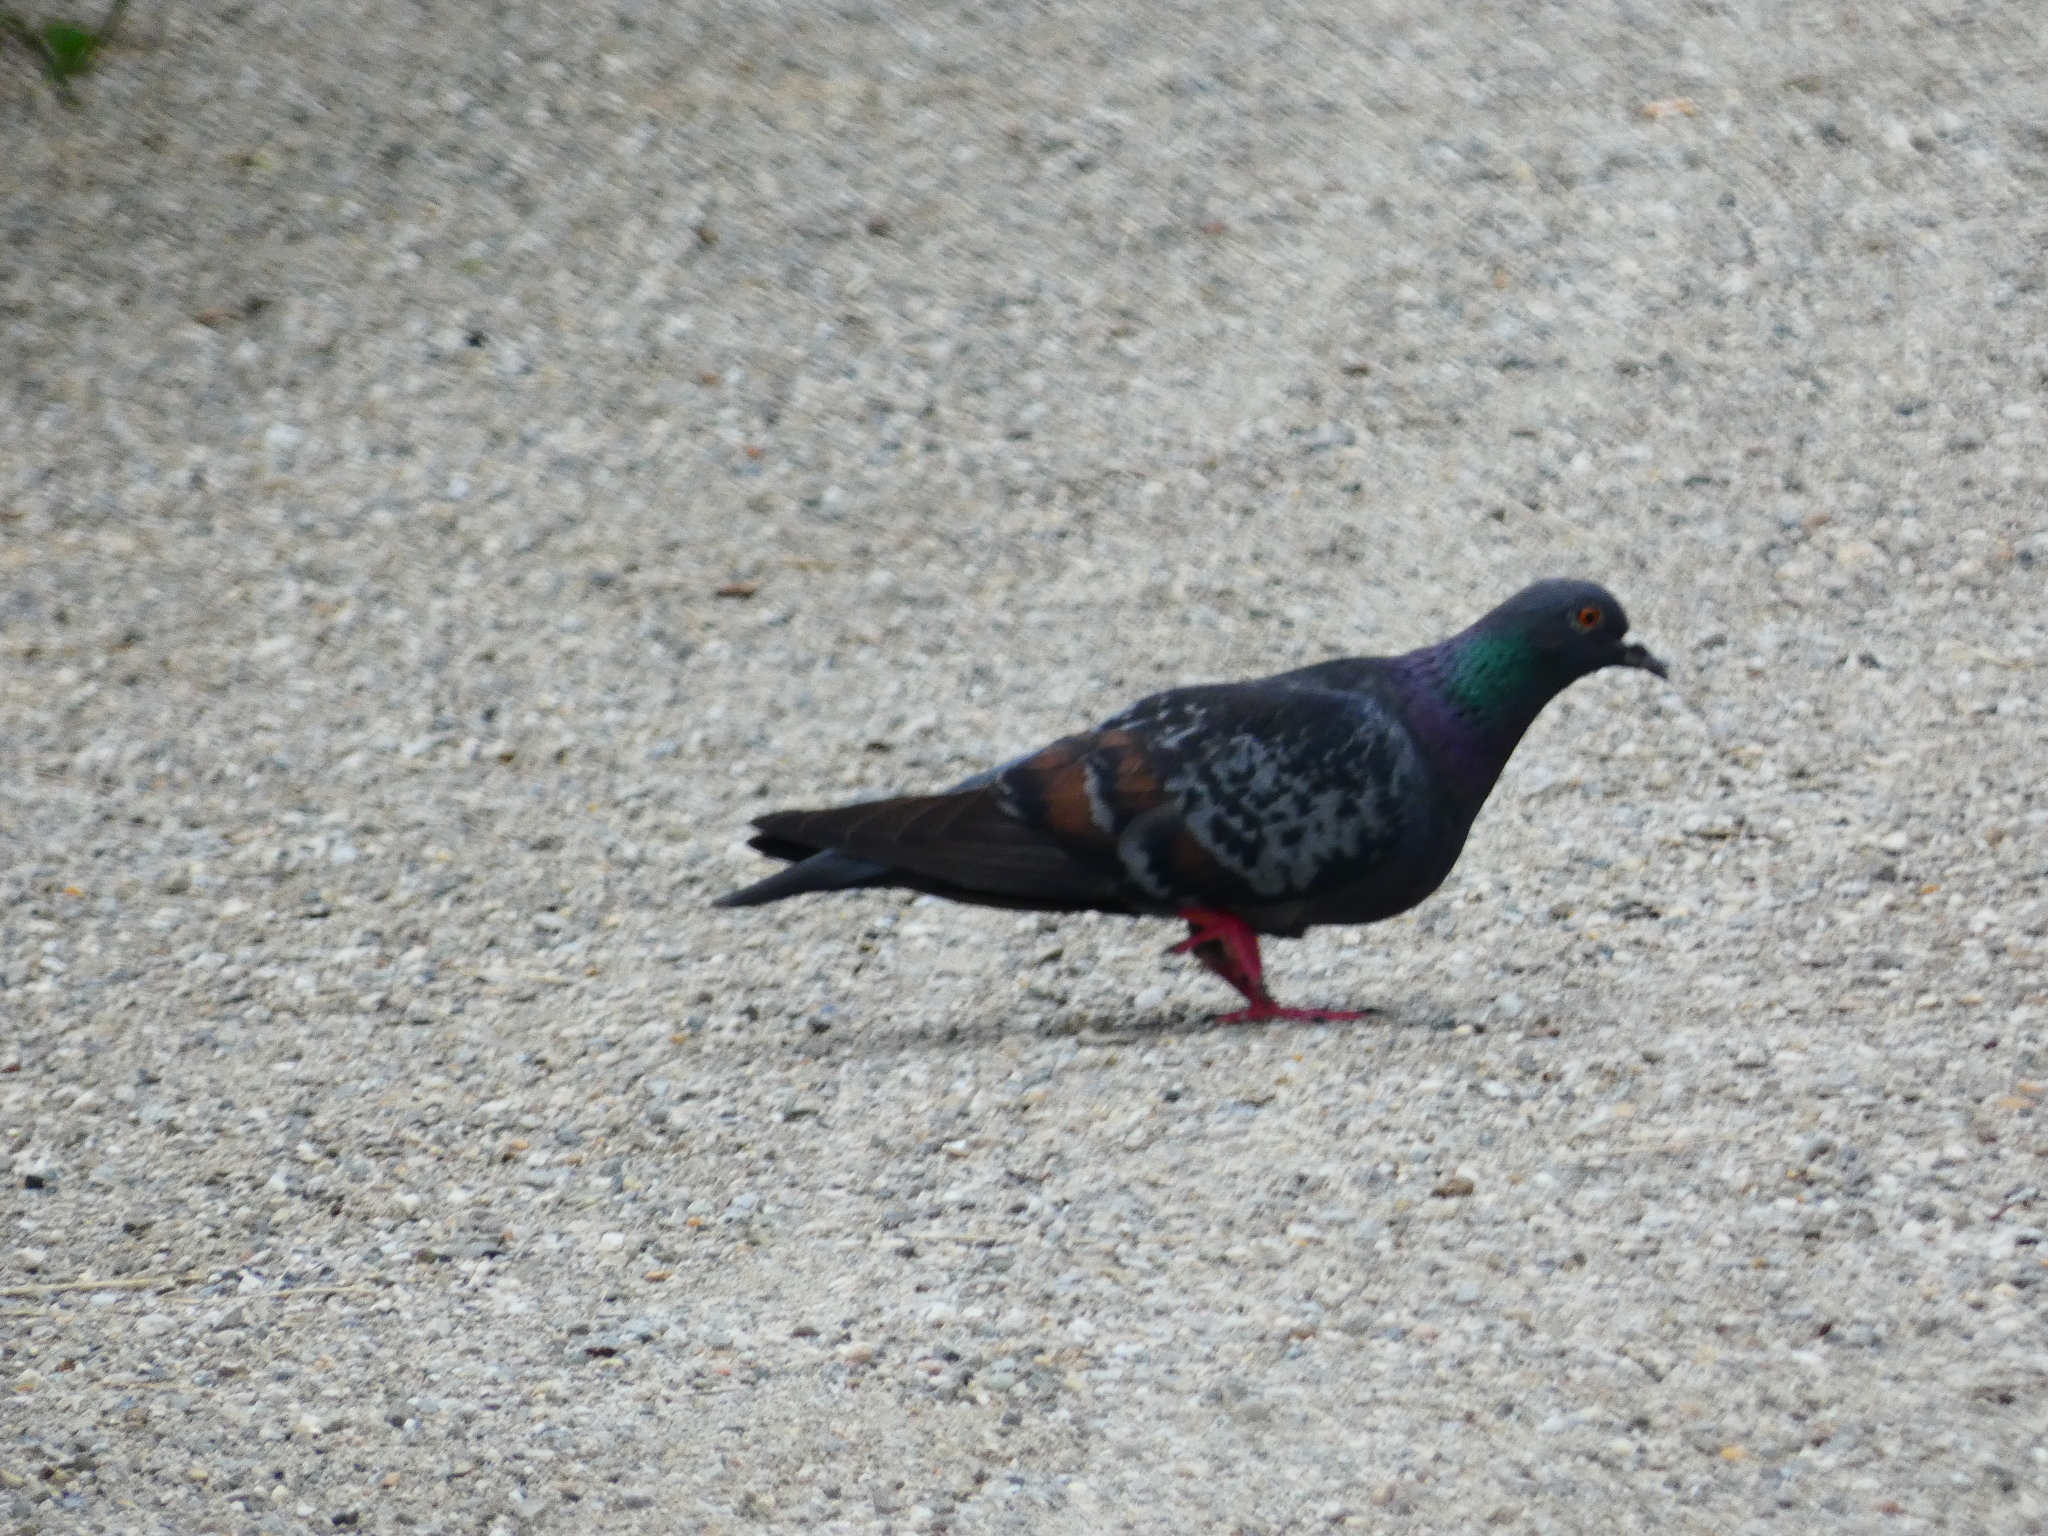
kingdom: Animalia
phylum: Chordata
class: Aves
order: Columbiformes
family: Columbidae
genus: Columba
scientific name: Columba livia
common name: Rock pigeon
